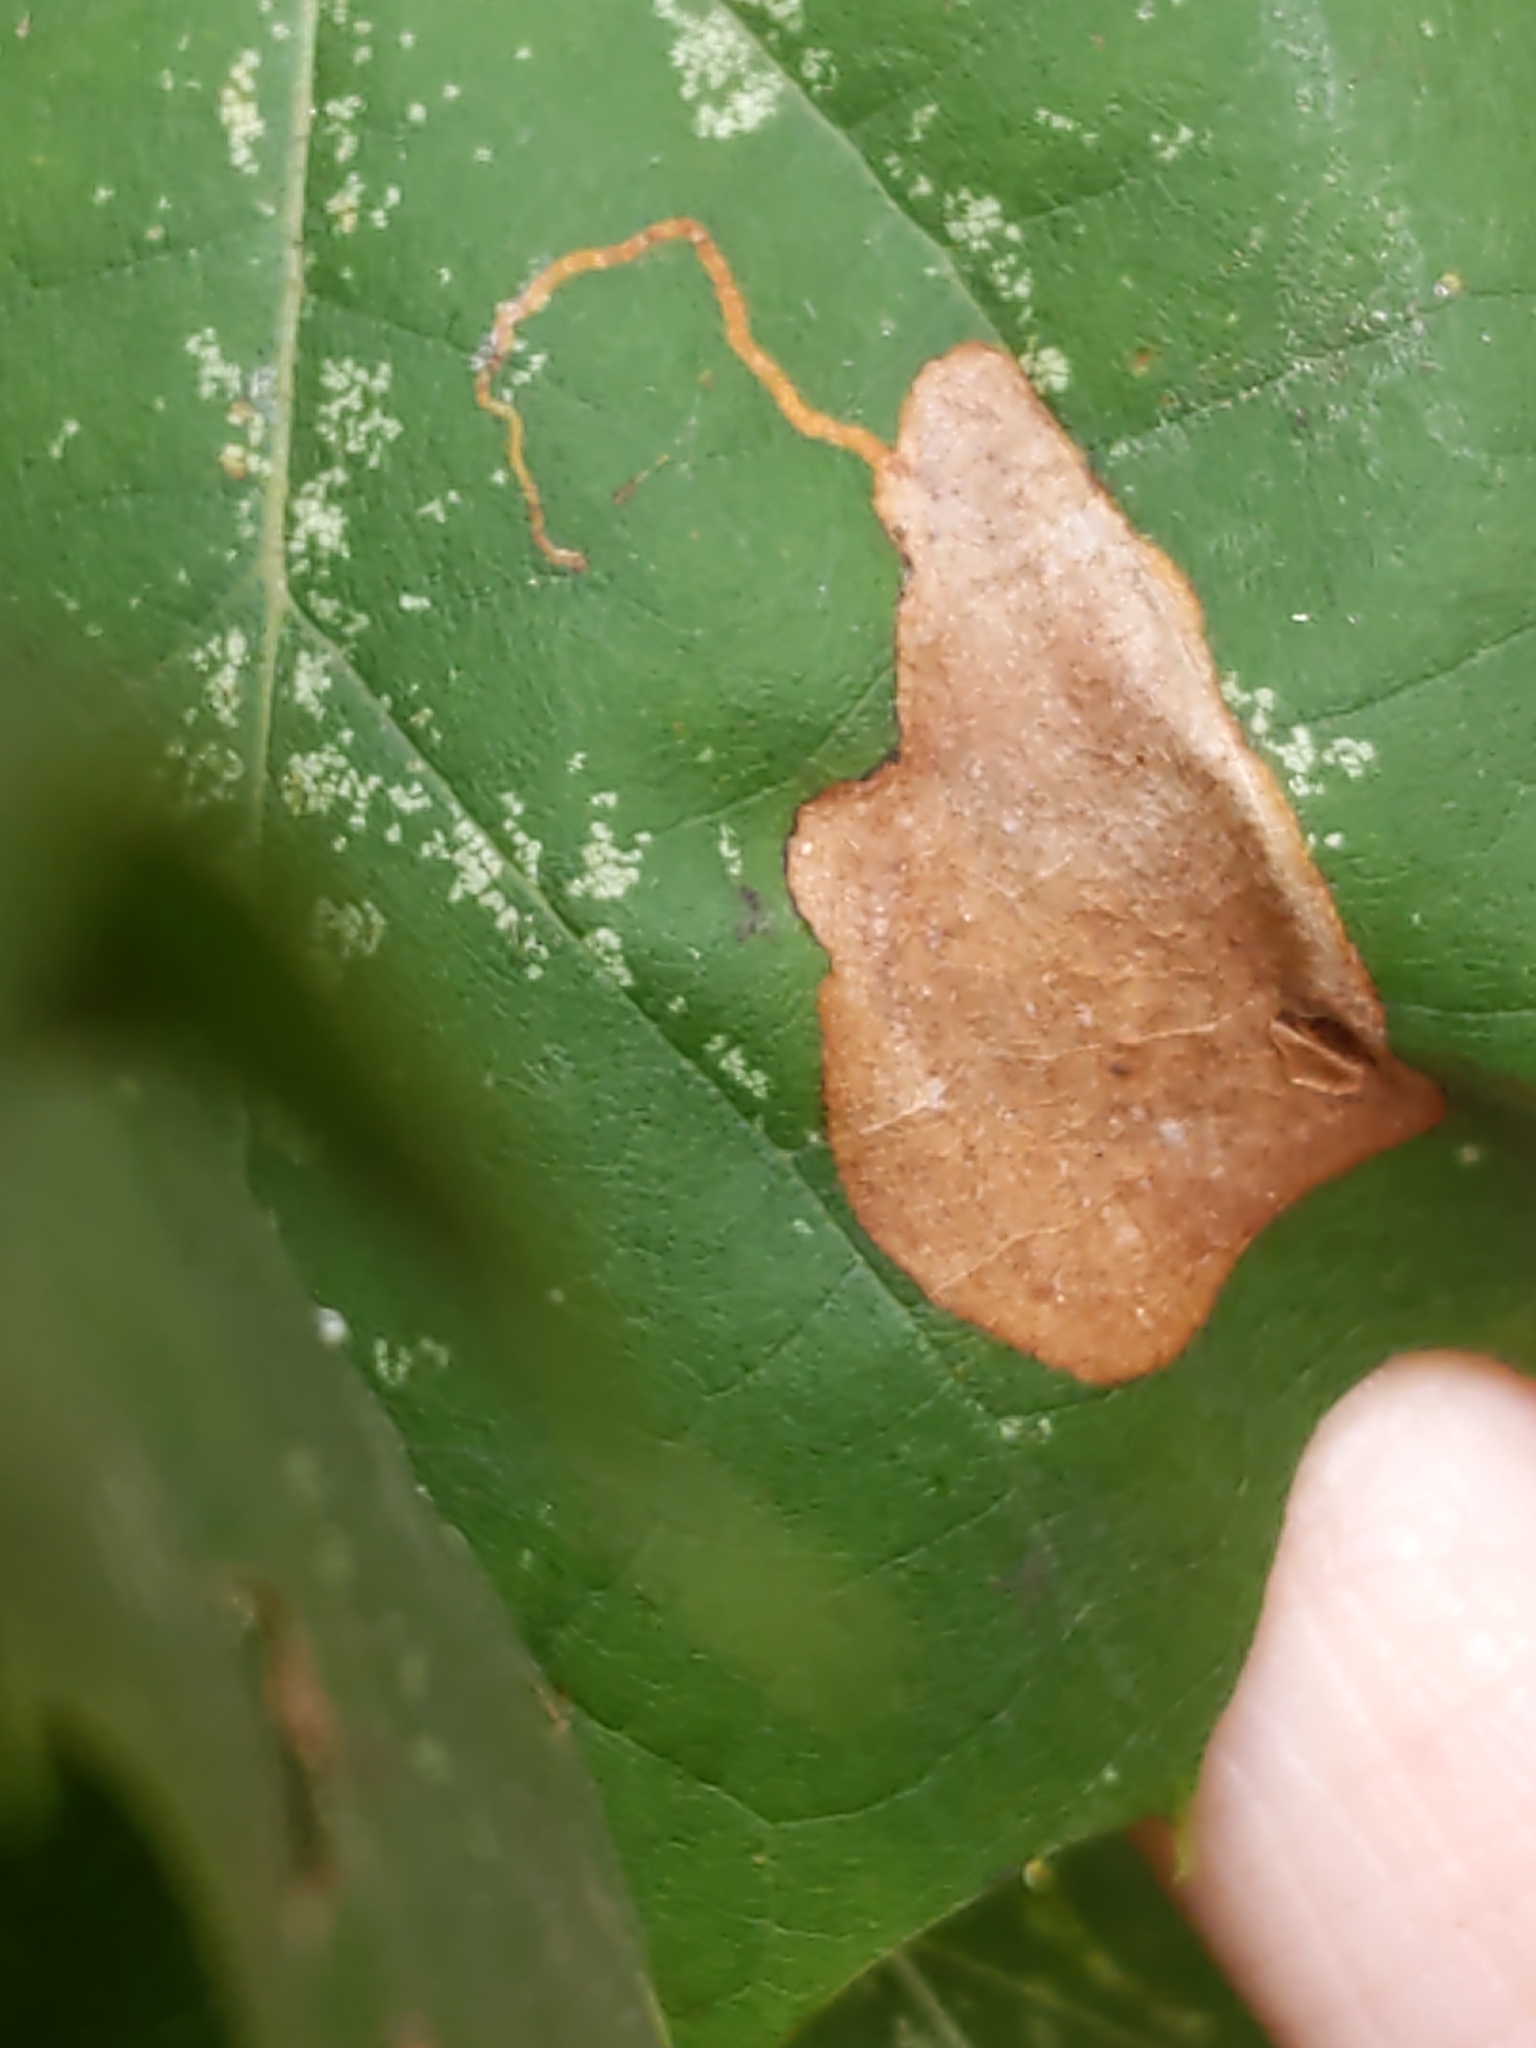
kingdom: Animalia
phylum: Arthropoda
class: Insecta
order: Lepidoptera
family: Nepticulidae
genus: Ectoedemia
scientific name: Ectoedemia platanella
